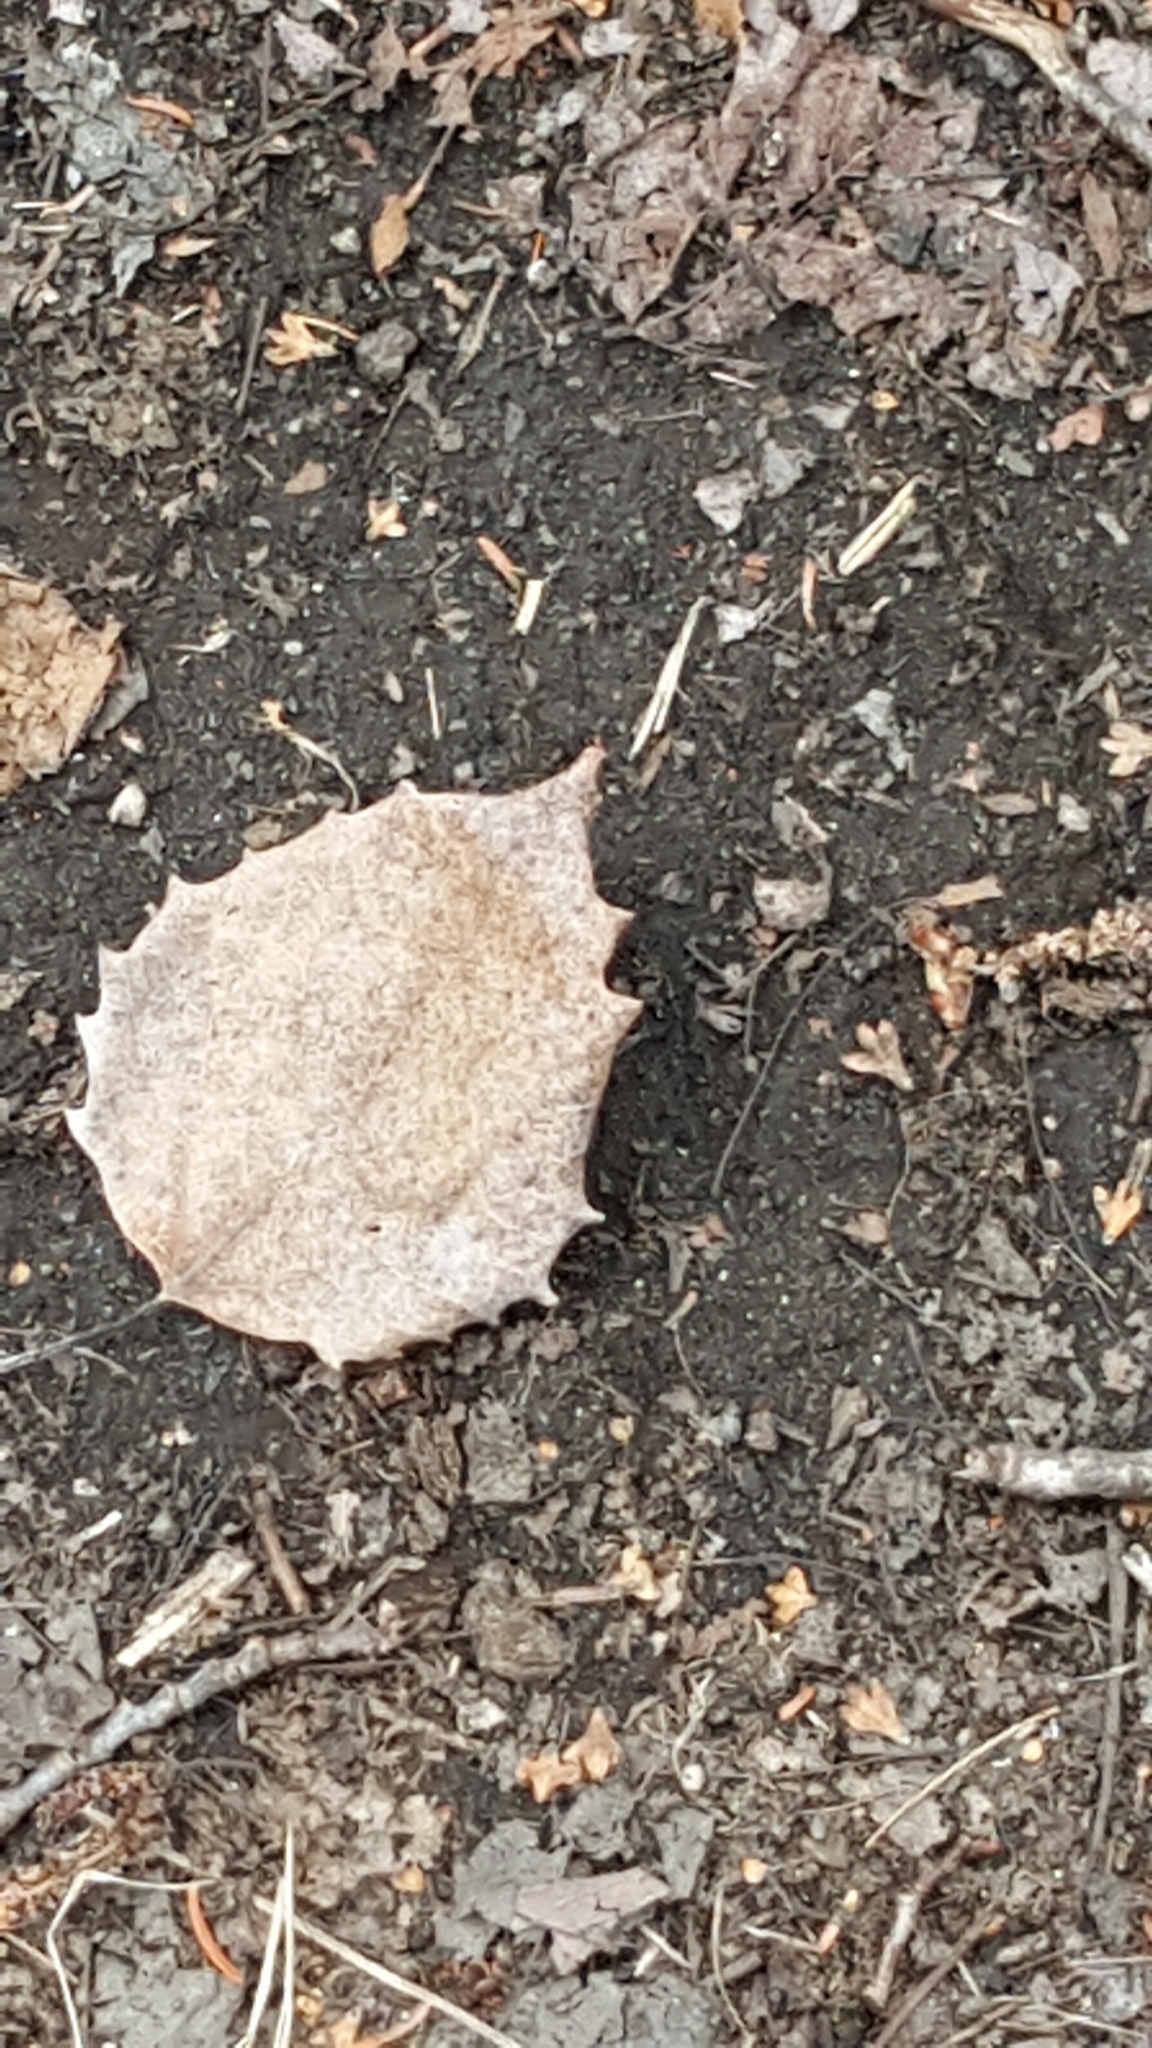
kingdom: Plantae
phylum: Tracheophyta
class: Magnoliopsida
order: Malpighiales
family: Salicaceae
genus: Populus
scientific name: Populus grandidentata
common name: Bigtooth aspen
